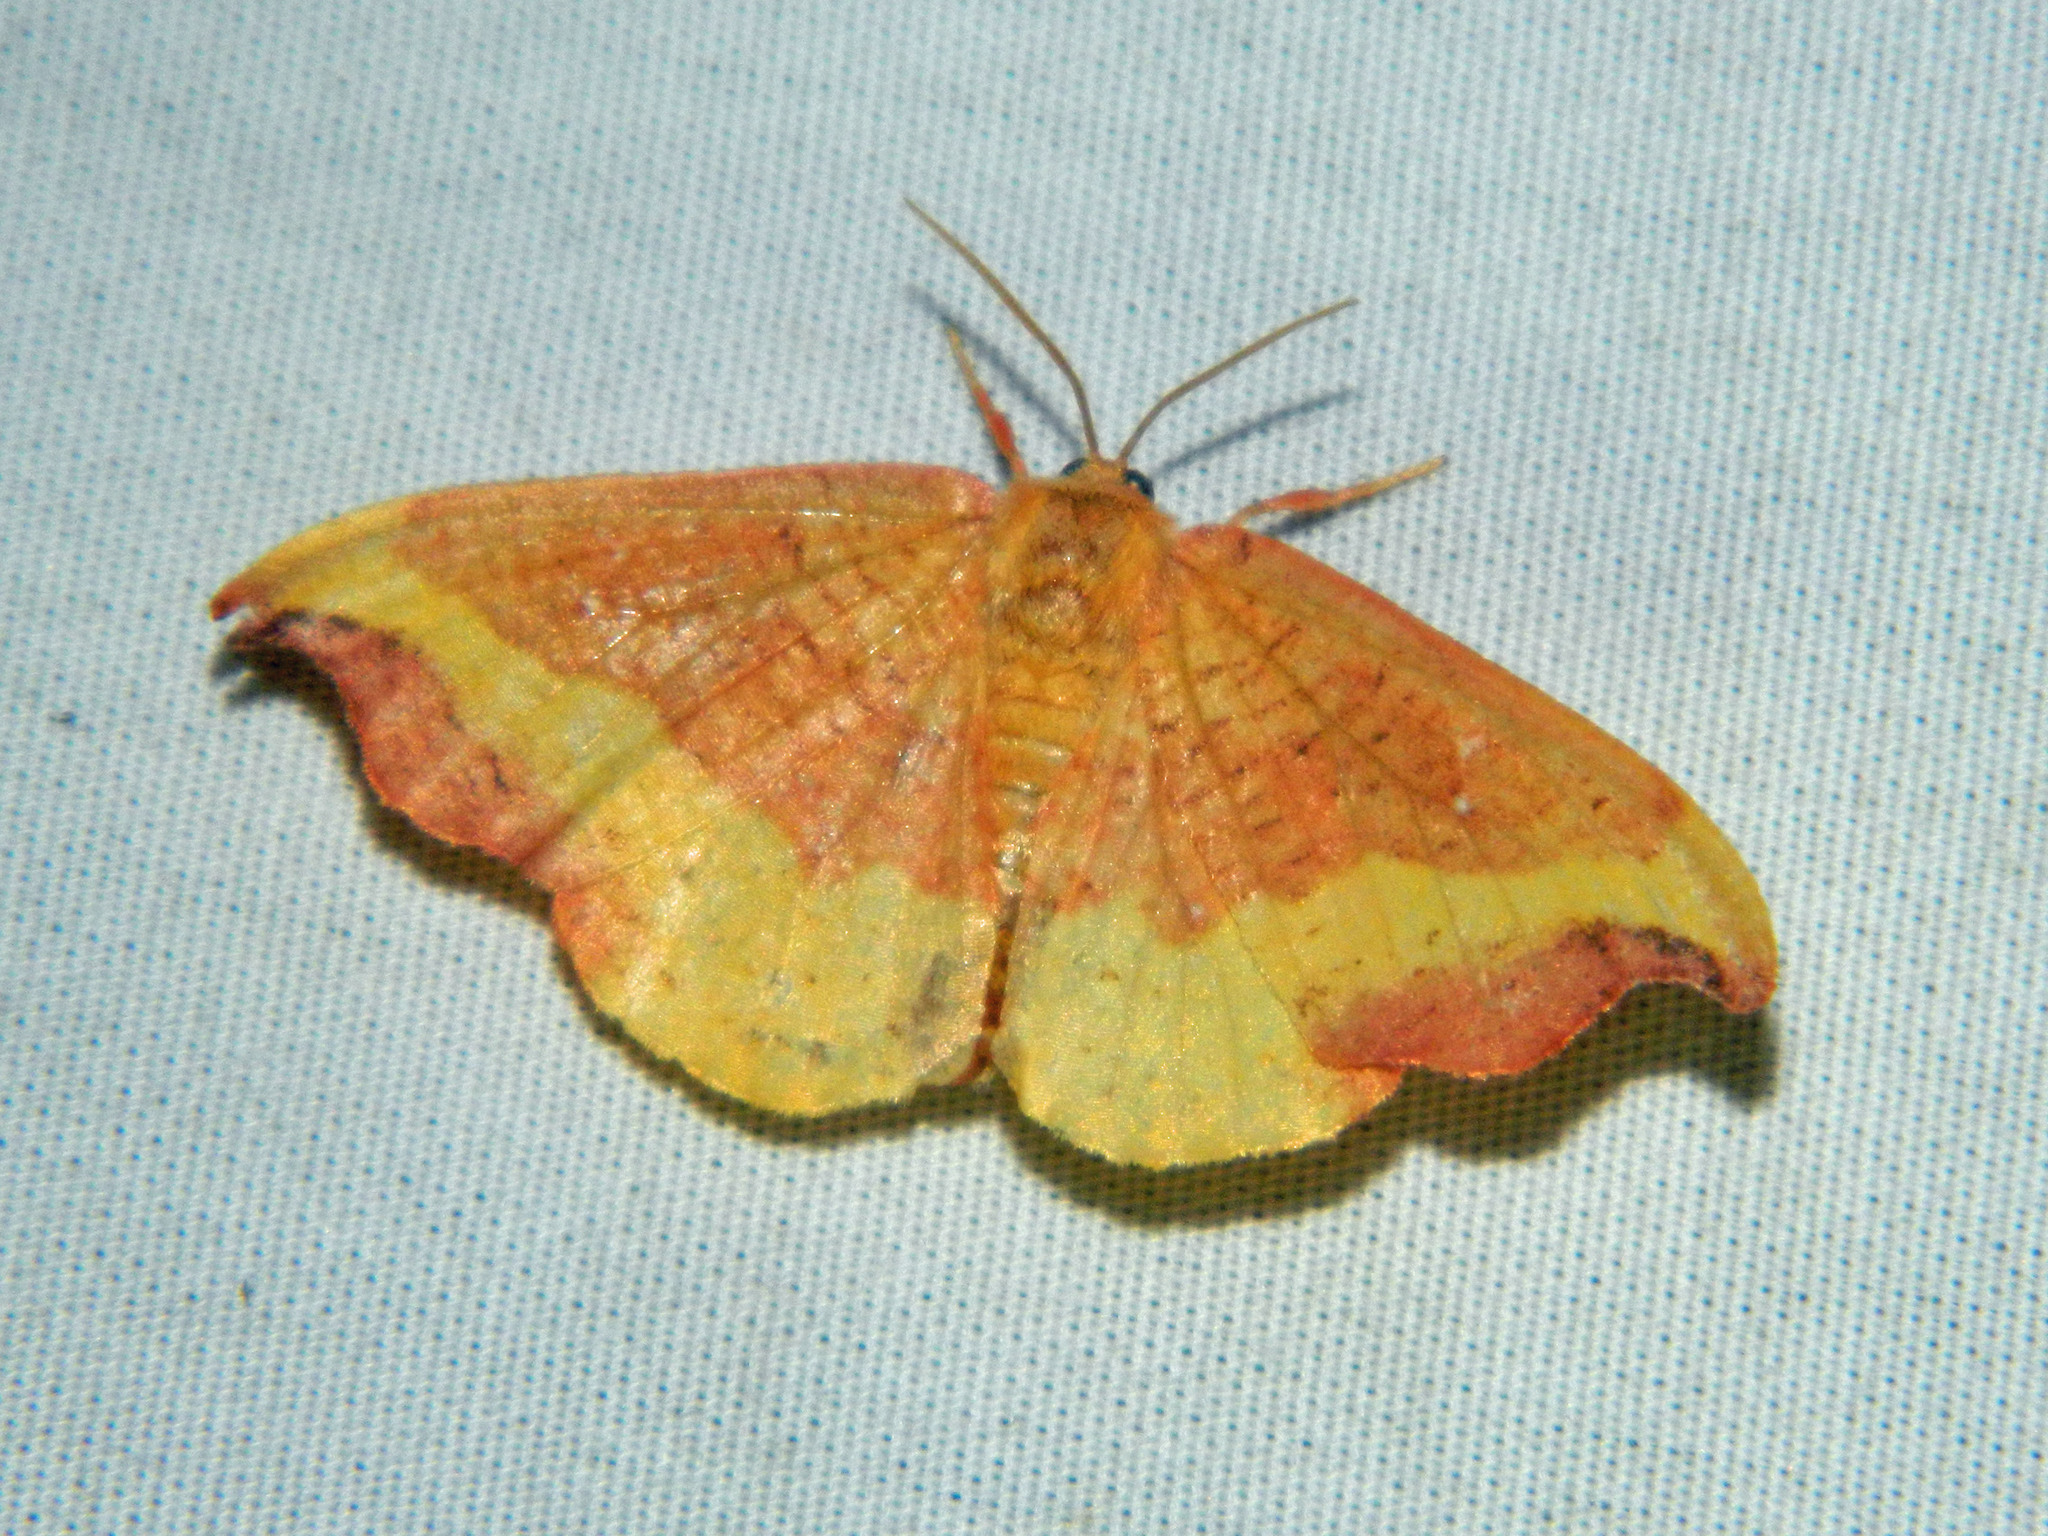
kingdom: Animalia
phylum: Arthropoda
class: Insecta
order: Lepidoptera
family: Drepanidae
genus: Oreta
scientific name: Oreta rosea
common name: Rose hooktip
